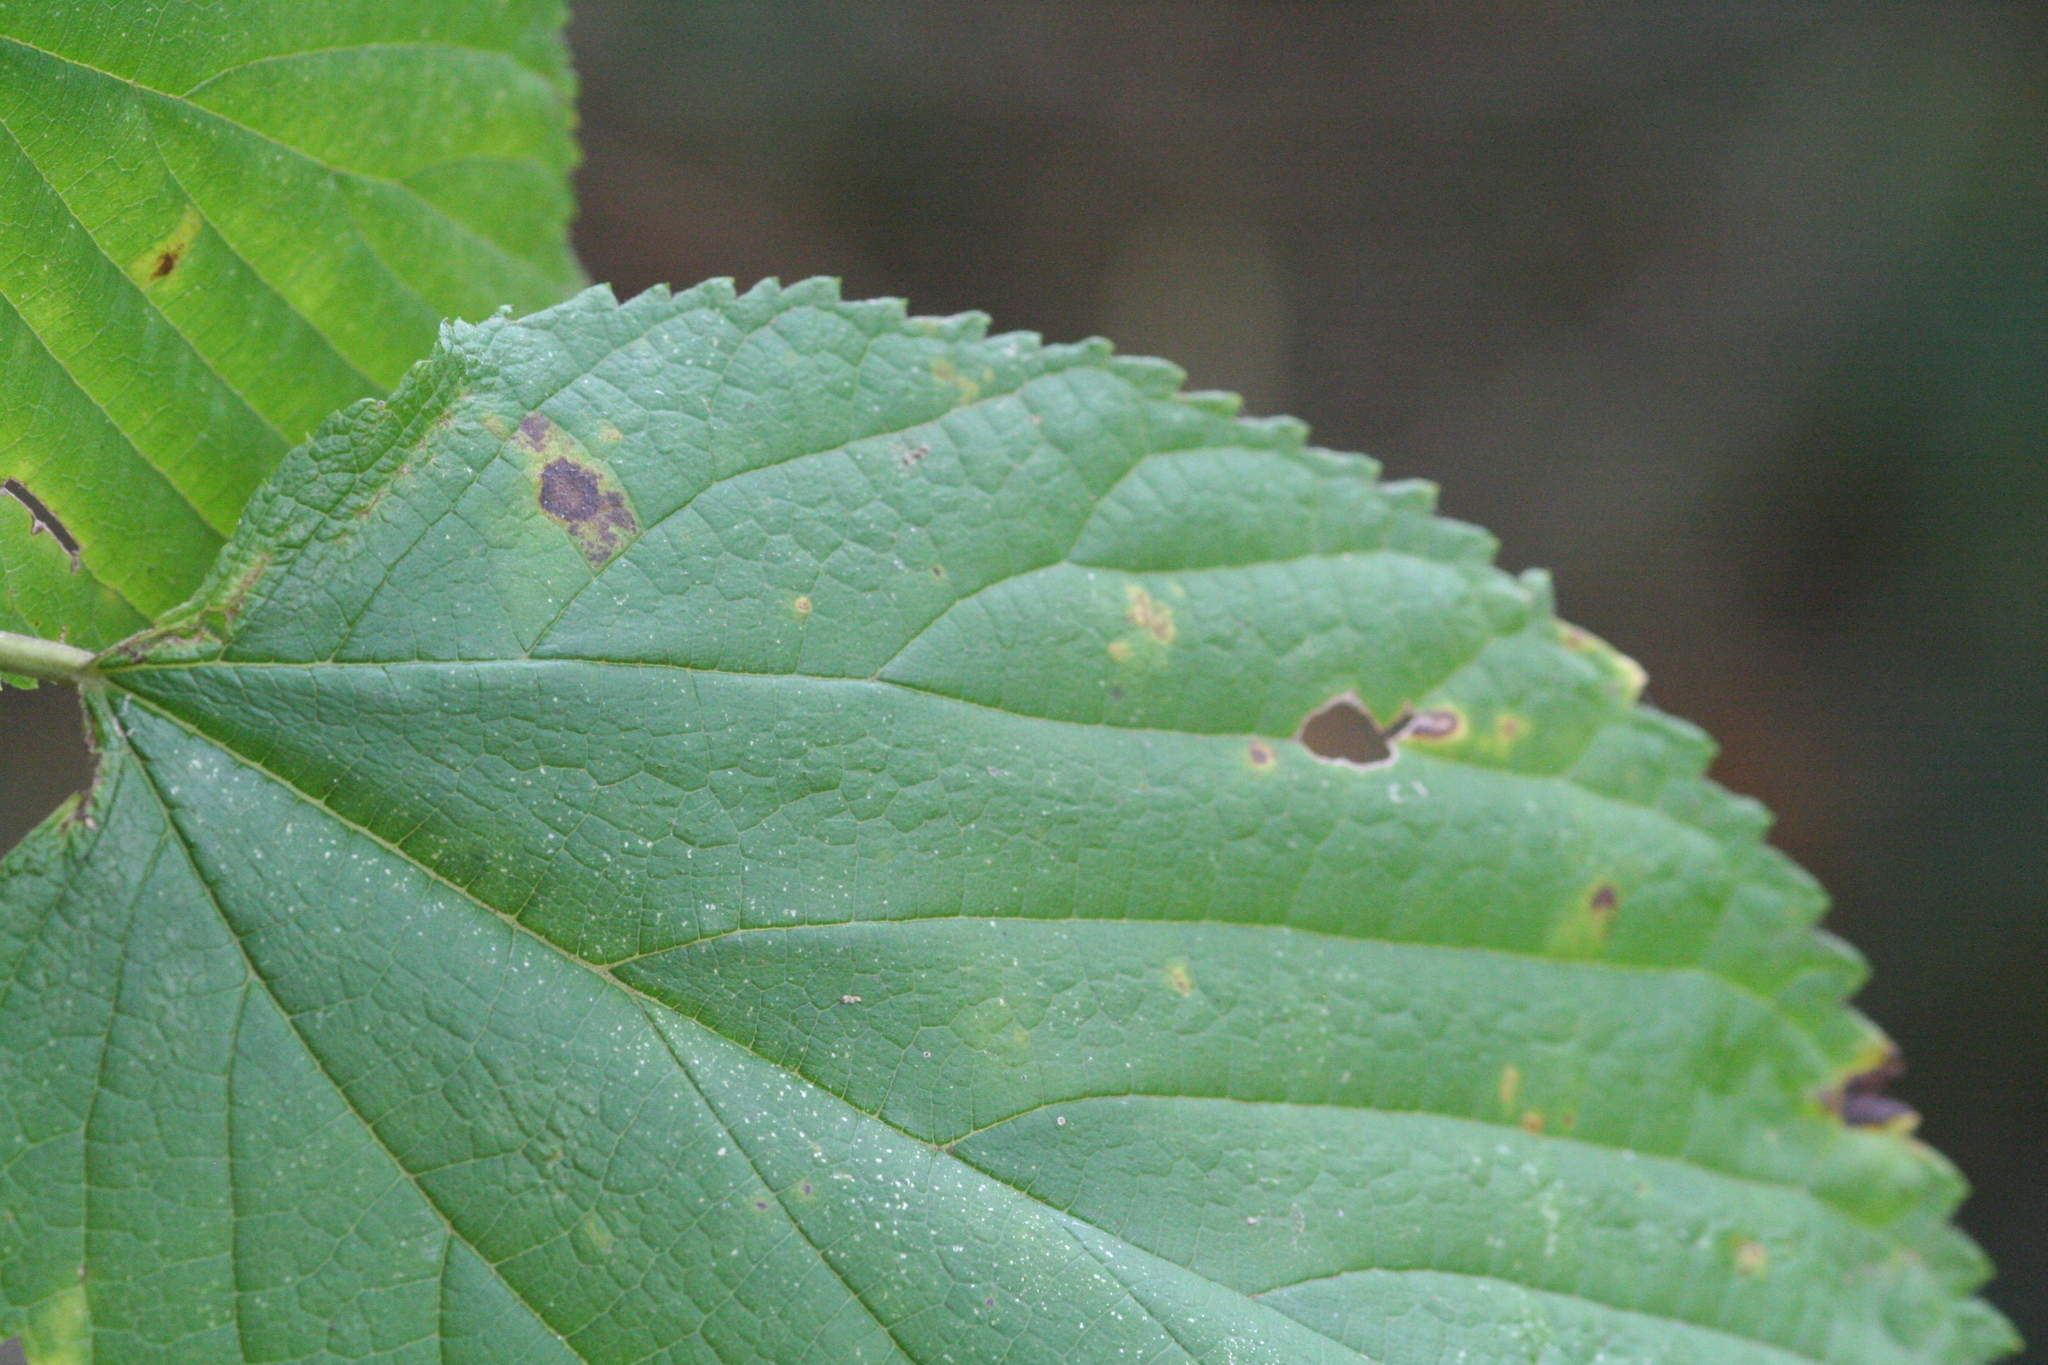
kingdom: Plantae
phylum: Tracheophyta
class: Magnoliopsida
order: Rosales
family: Moraceae
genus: Morus
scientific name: Morus rubra
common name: Red mulberry
